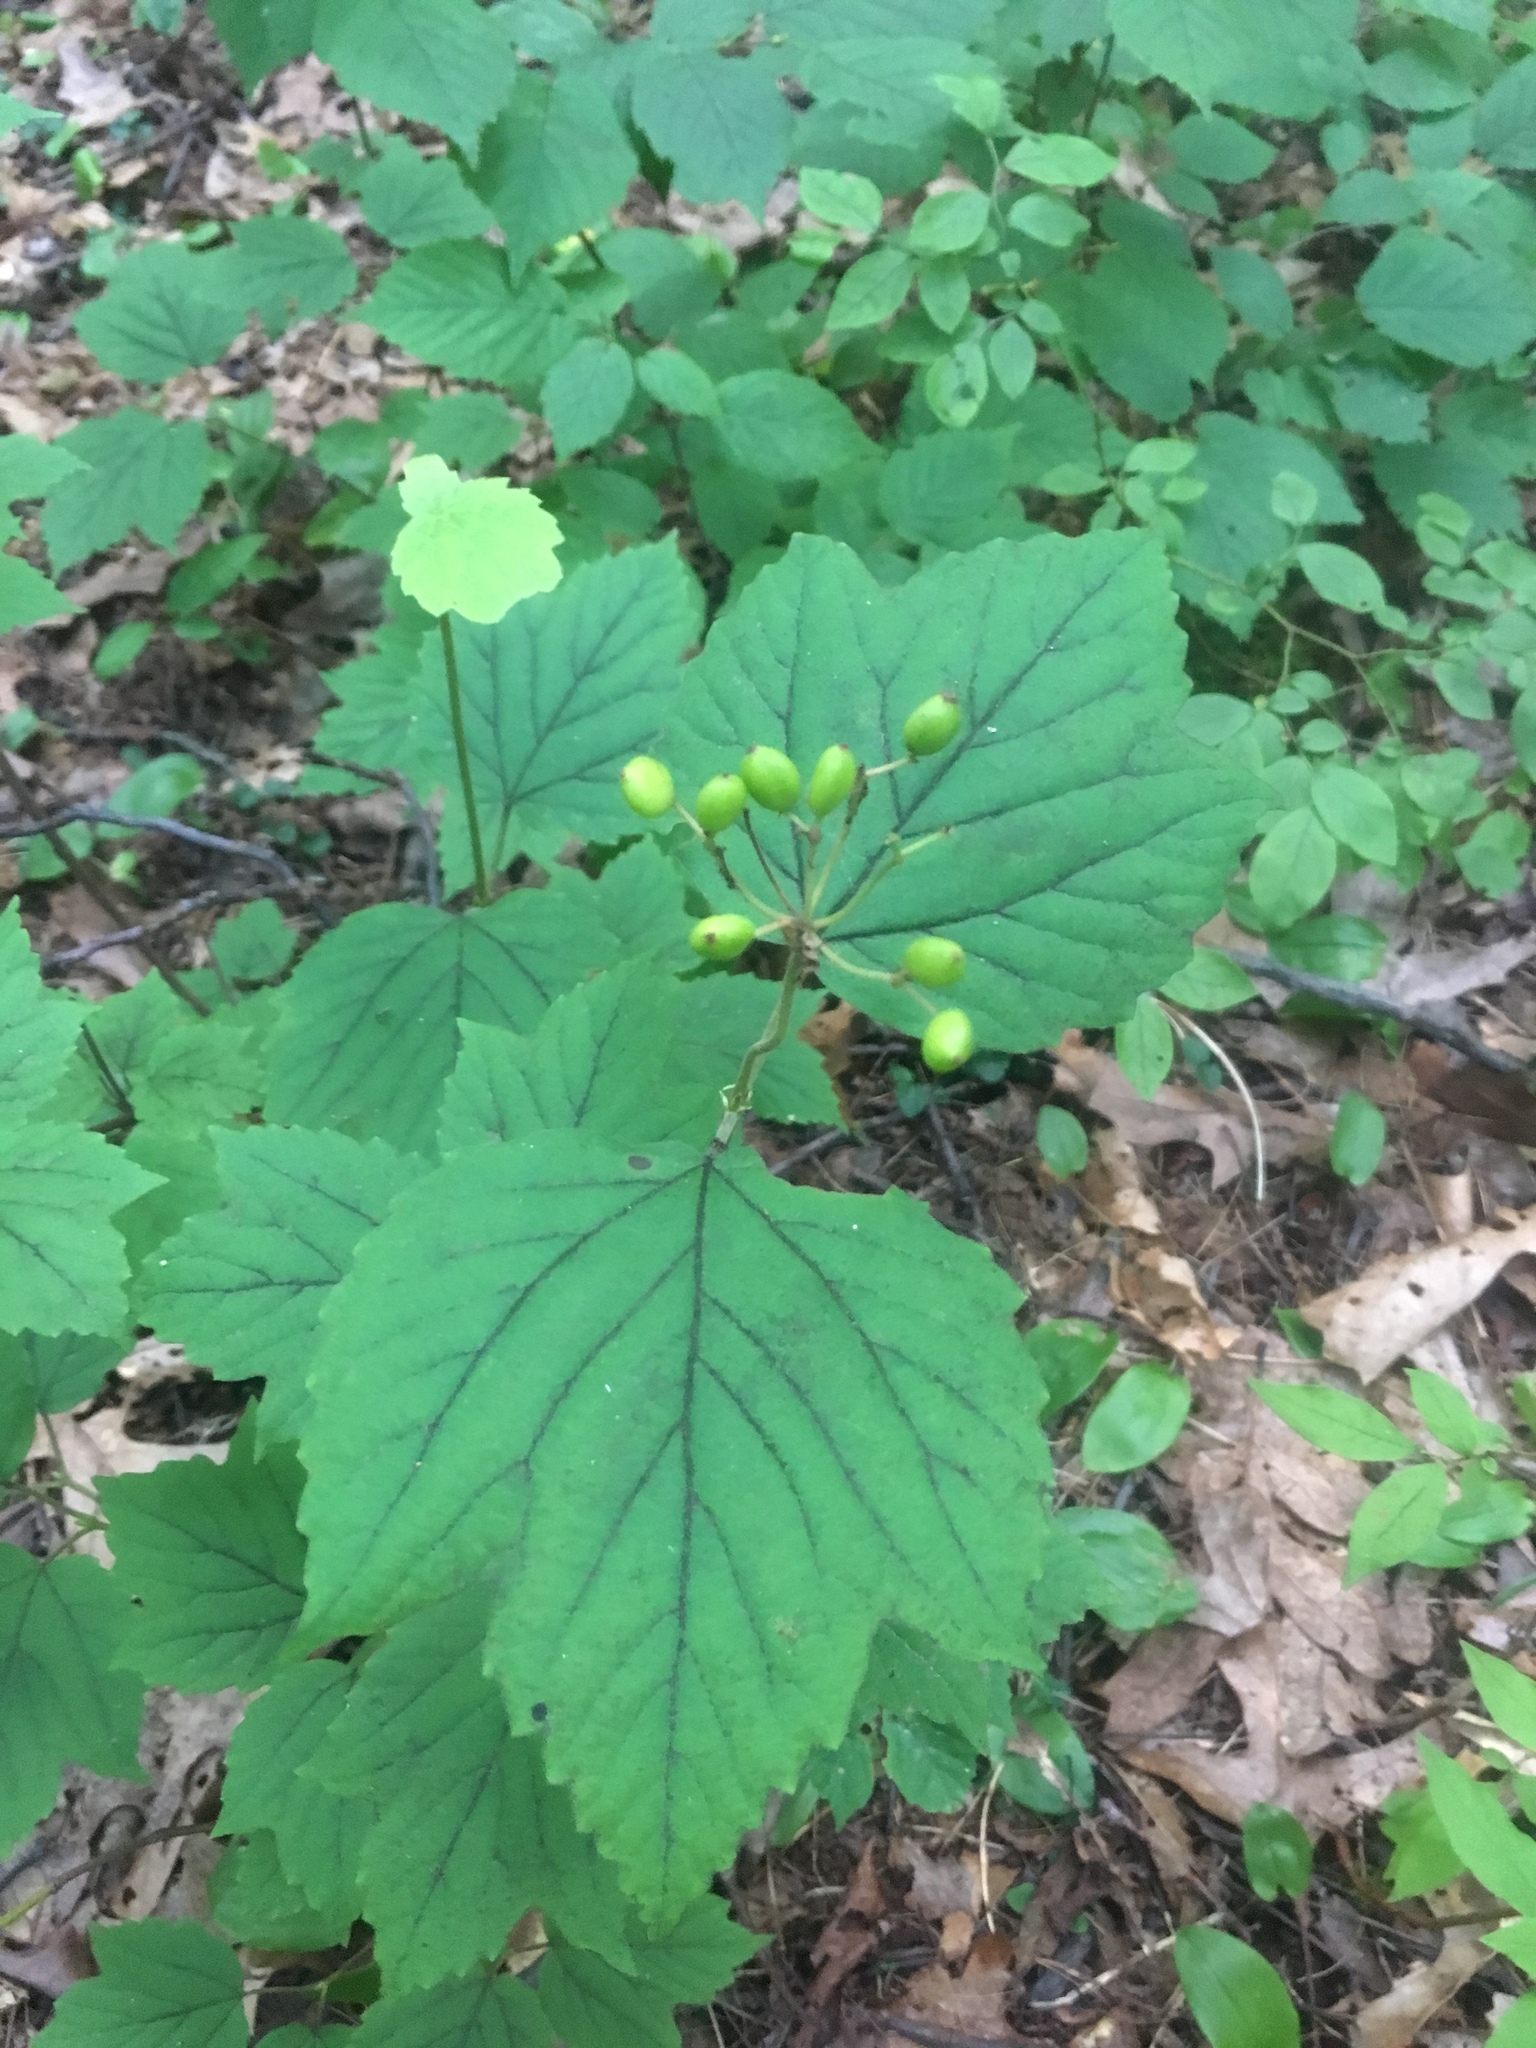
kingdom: Plantae
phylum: Tracheophyta
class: Magnoliopsida
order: Dipsacales
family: Viburnaceae
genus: Viburnum
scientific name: Viburnum acerifolium
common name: Dockmackie
